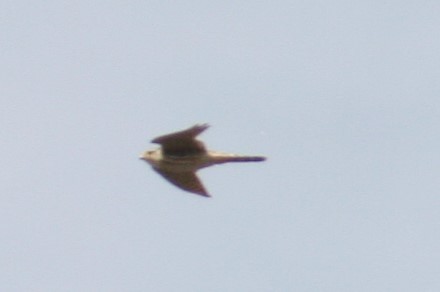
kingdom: Animalia
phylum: Chordata
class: Aves
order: Falconiformes
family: Falconidae
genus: Falco
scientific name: Falco columbarius
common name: Merlin
